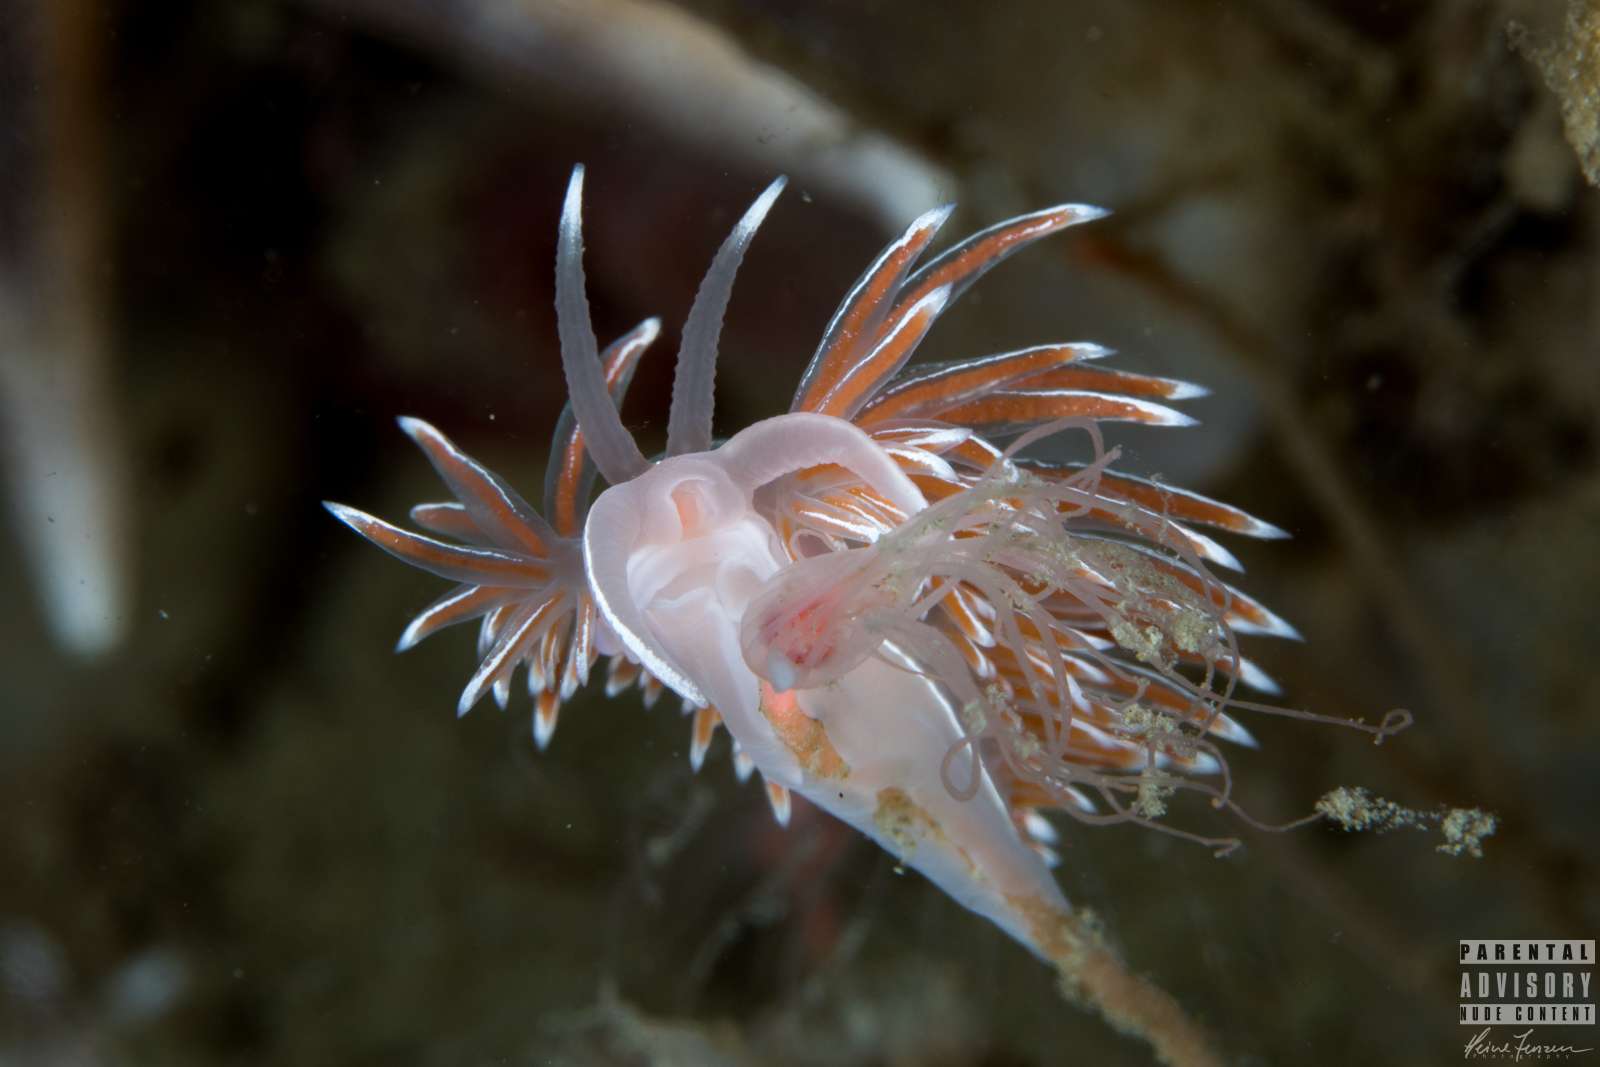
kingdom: Animalia
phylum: Mollusca
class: Gastropoda
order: Nudibranchia
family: Coryphellidae
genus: Coryphella
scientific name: Coryphella lineata
